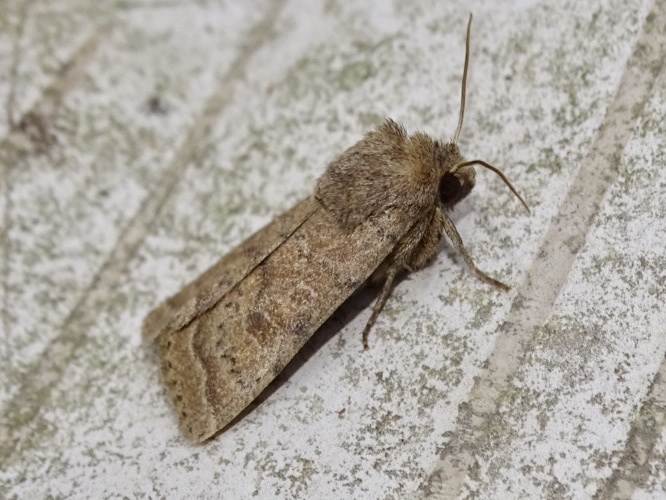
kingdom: Animalia
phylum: Arthropoda
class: Insecta
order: Lepidoptera
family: Noctuidae
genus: Hoplodrina
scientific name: Hoplodrina octogenaria
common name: Uncertain
